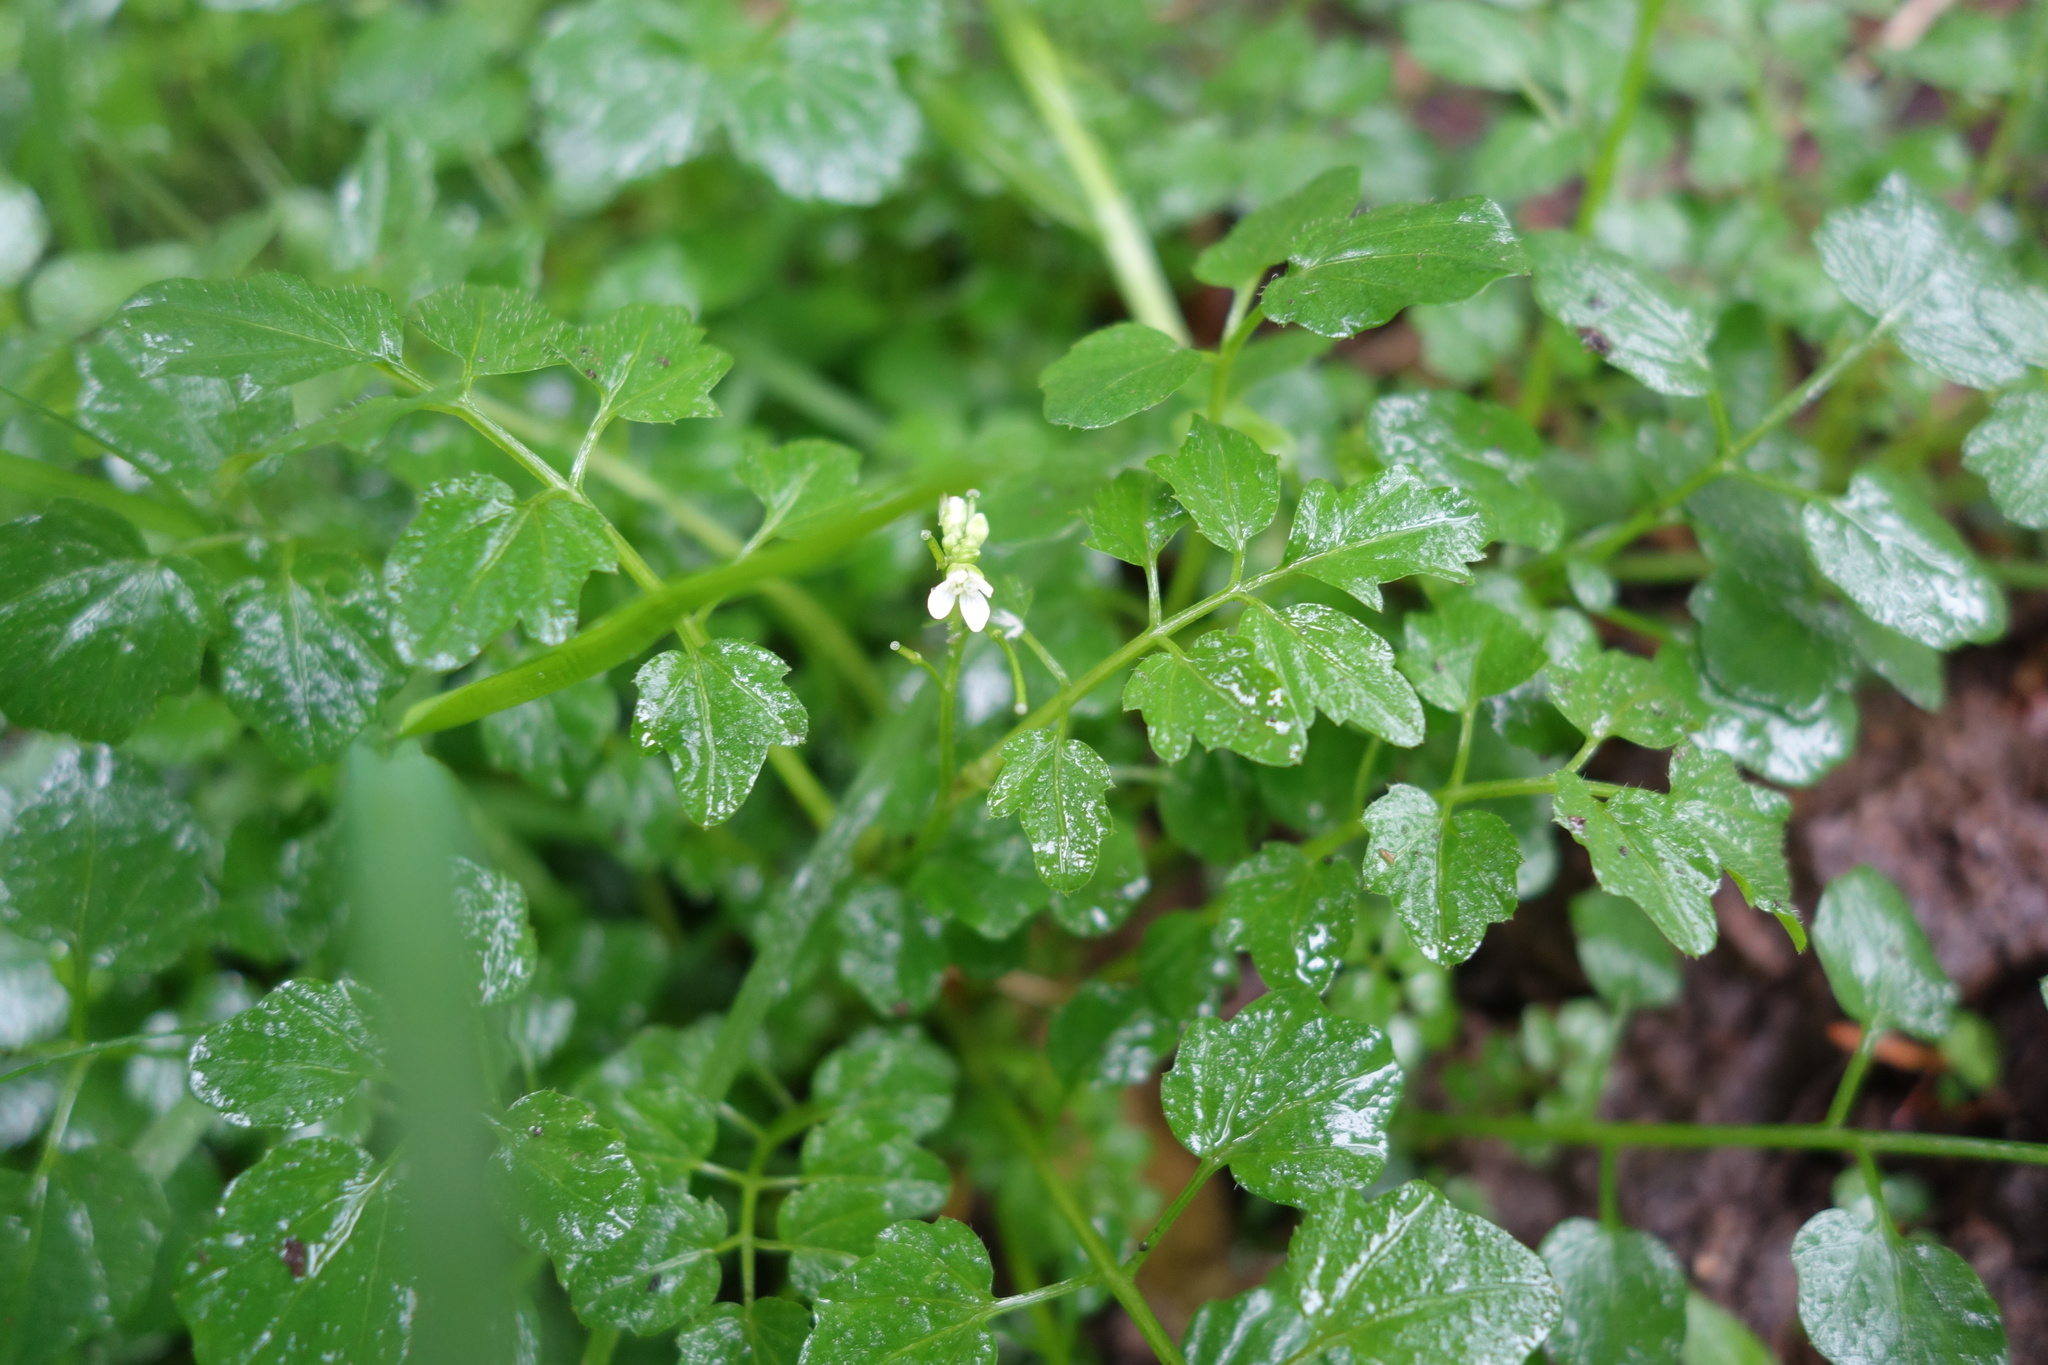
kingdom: Plantae
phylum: Tracheophyta
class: Magnoliopsida
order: Brassicales
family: Brassicaceae
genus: Cardamine
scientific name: Cardamine flexuosa
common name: Woodland bittercress
